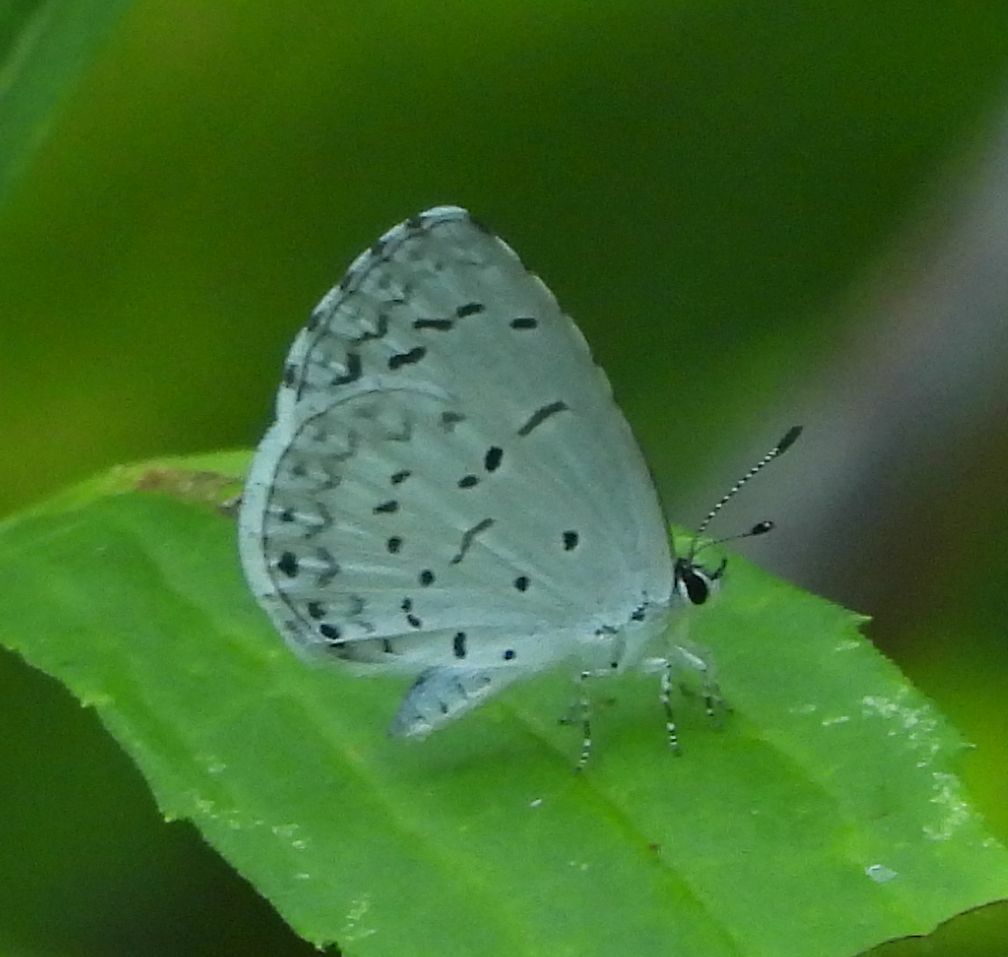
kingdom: Animalia
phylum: Arthropoda
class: Insecta
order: Lepidoptera
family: Lycaenidae
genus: Cyaniris
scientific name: Cyaniris neglecta
